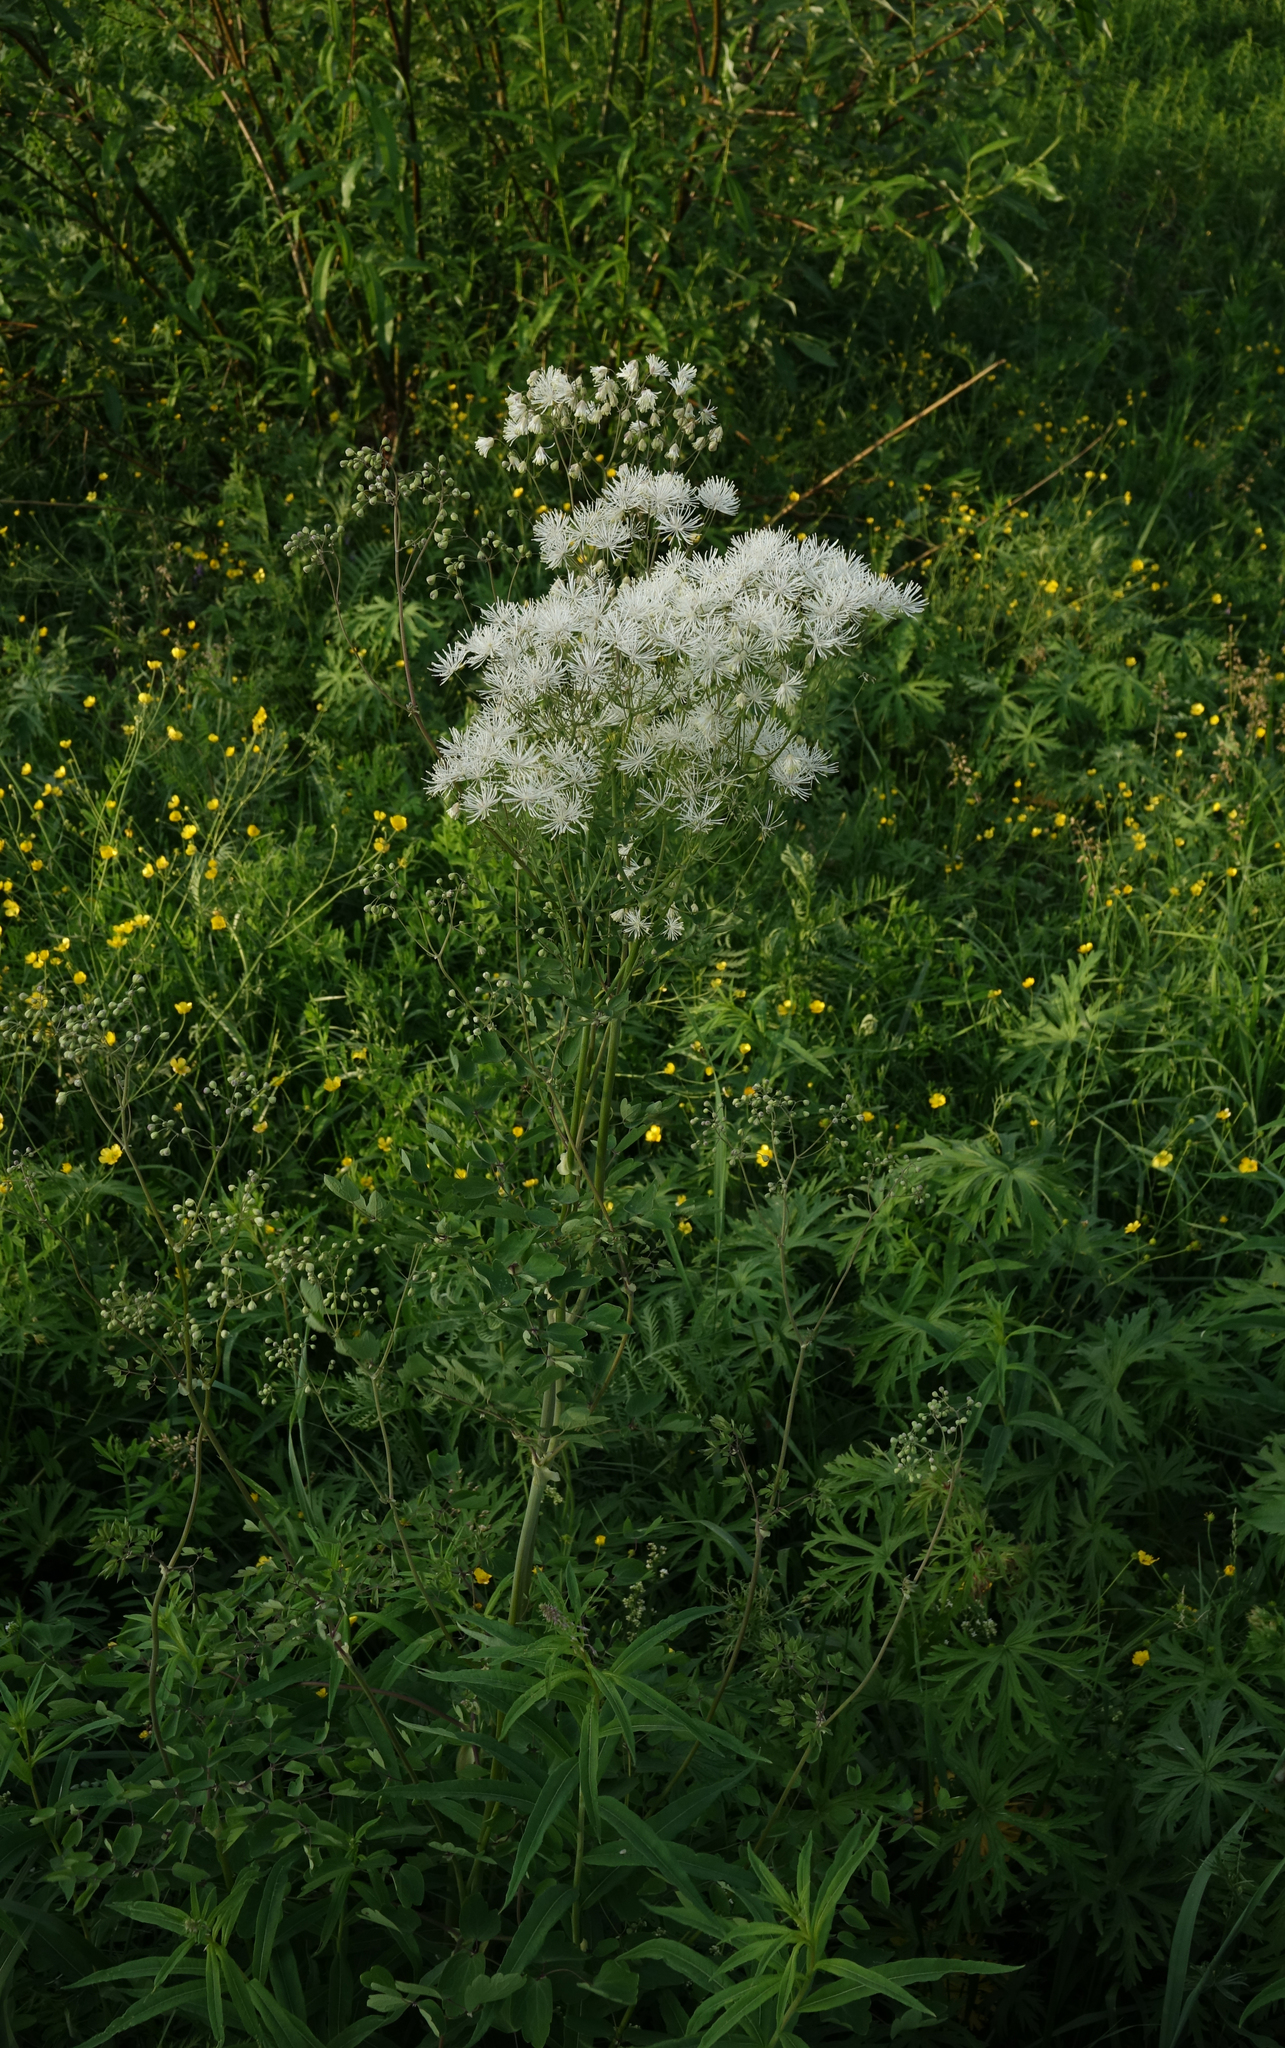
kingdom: Plantae
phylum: Tracheophyta
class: Magnoliopsida
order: Ranunculales
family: Ranunculaceae
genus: Thalictrum
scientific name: Thalictrum aquilegiifolium
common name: French meadow-rue
